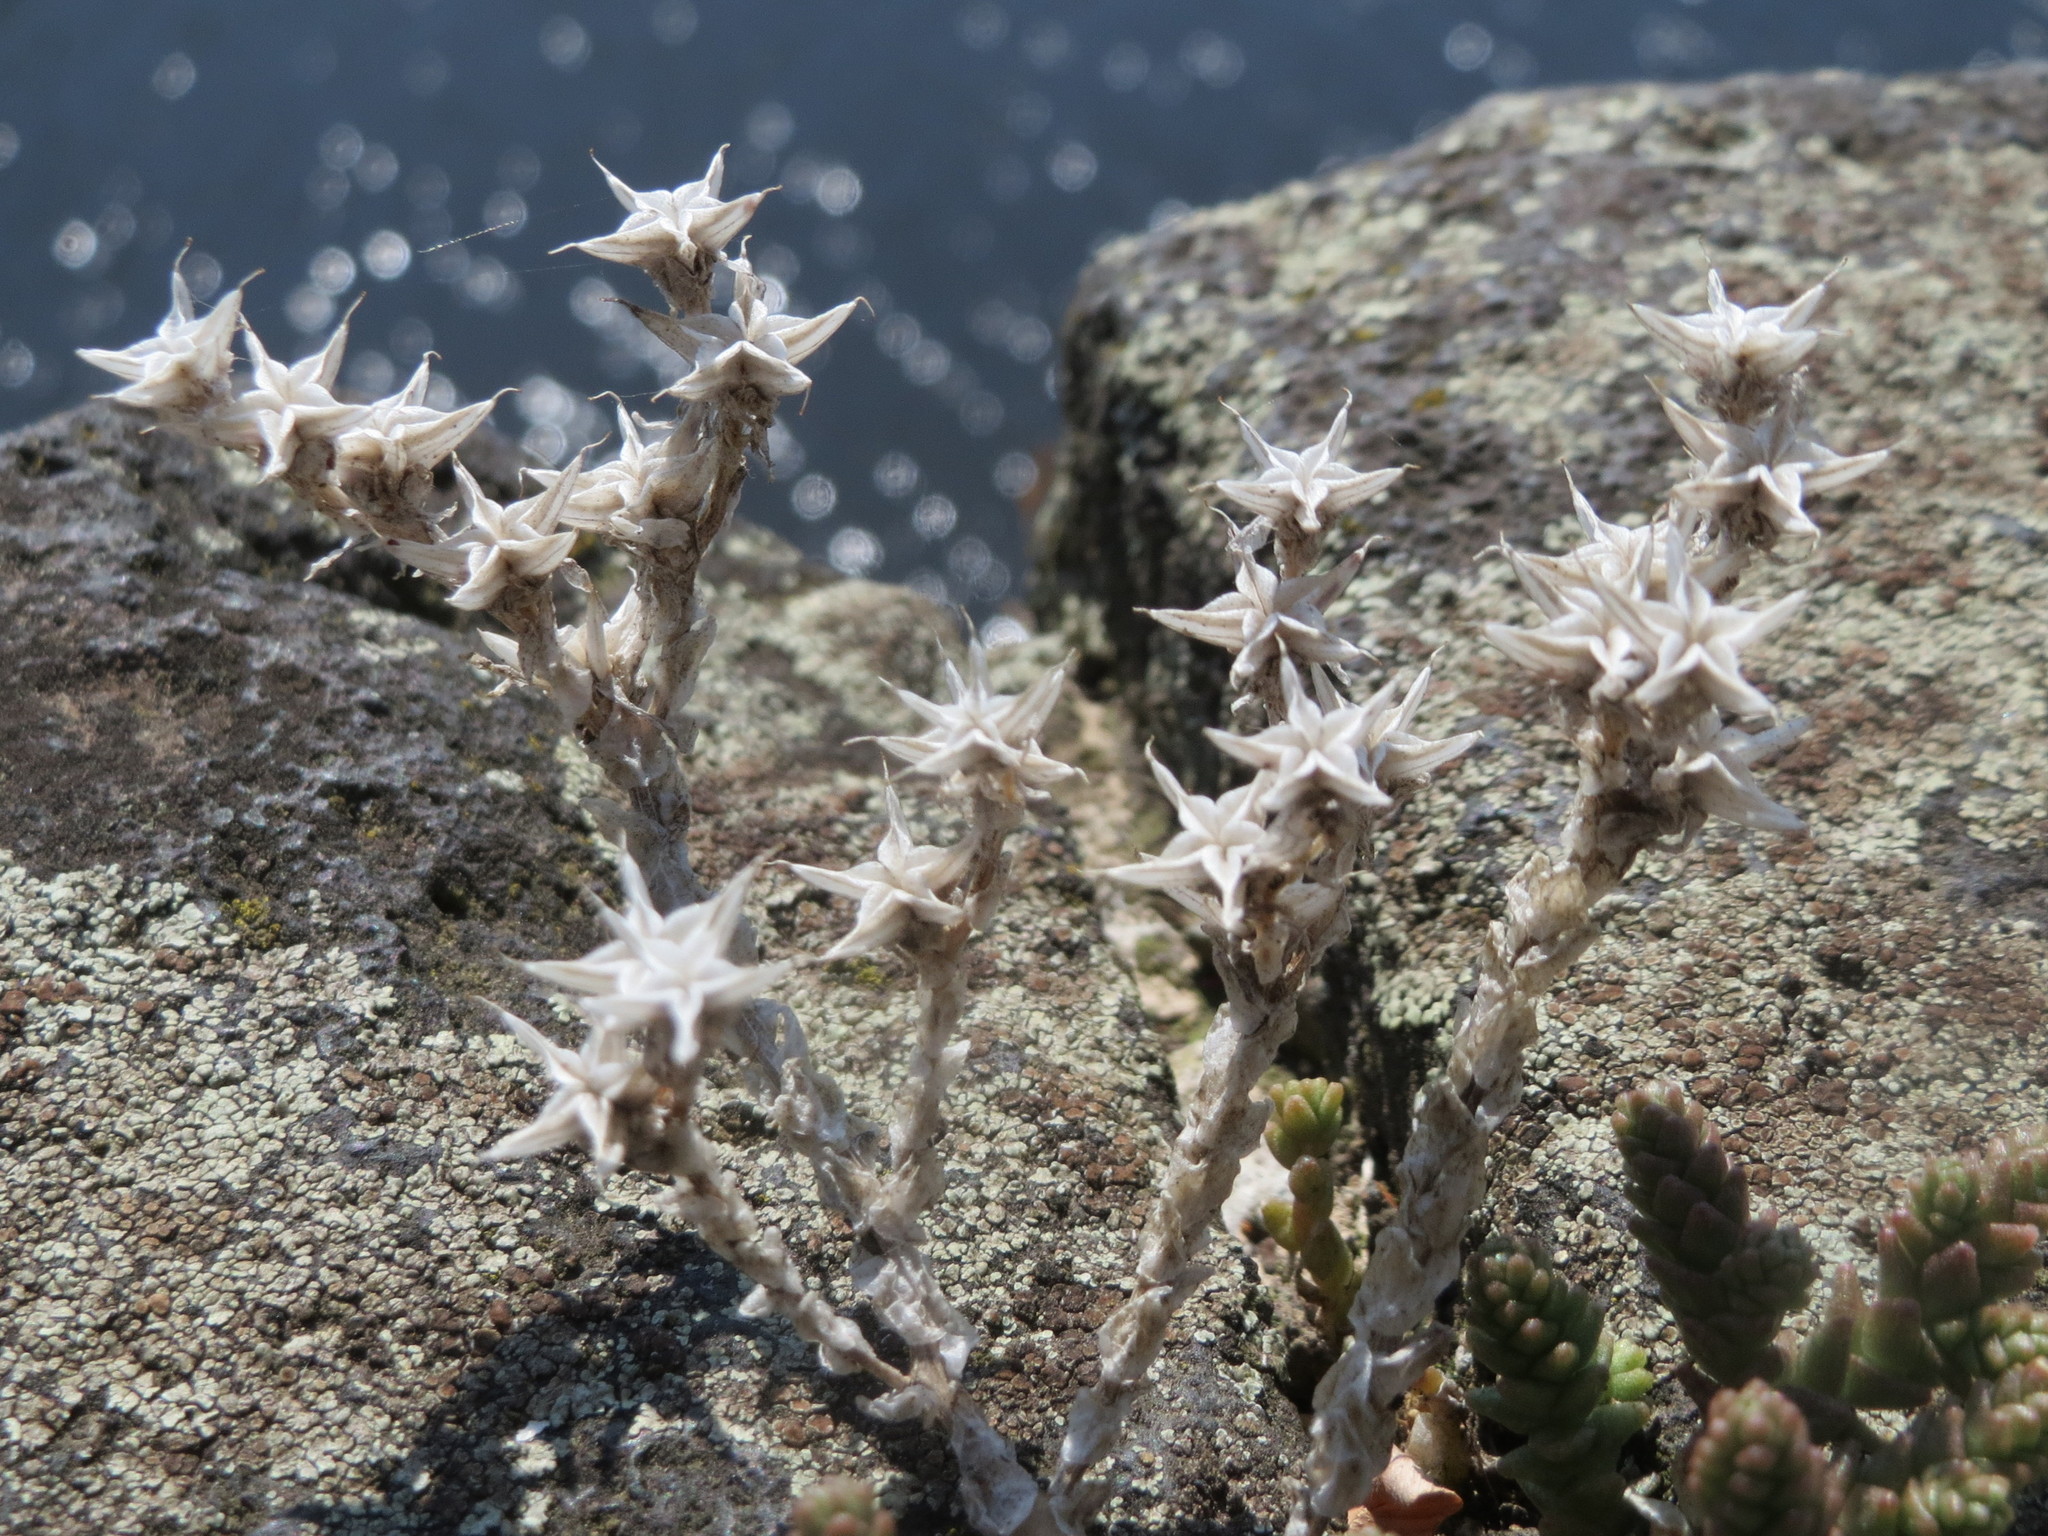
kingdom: Plantae
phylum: Tracheophyta
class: Magnoliopsida
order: Saxifragales
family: Crassulaceae
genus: Sedum
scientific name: Sedum acre
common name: Biting stonecrop
